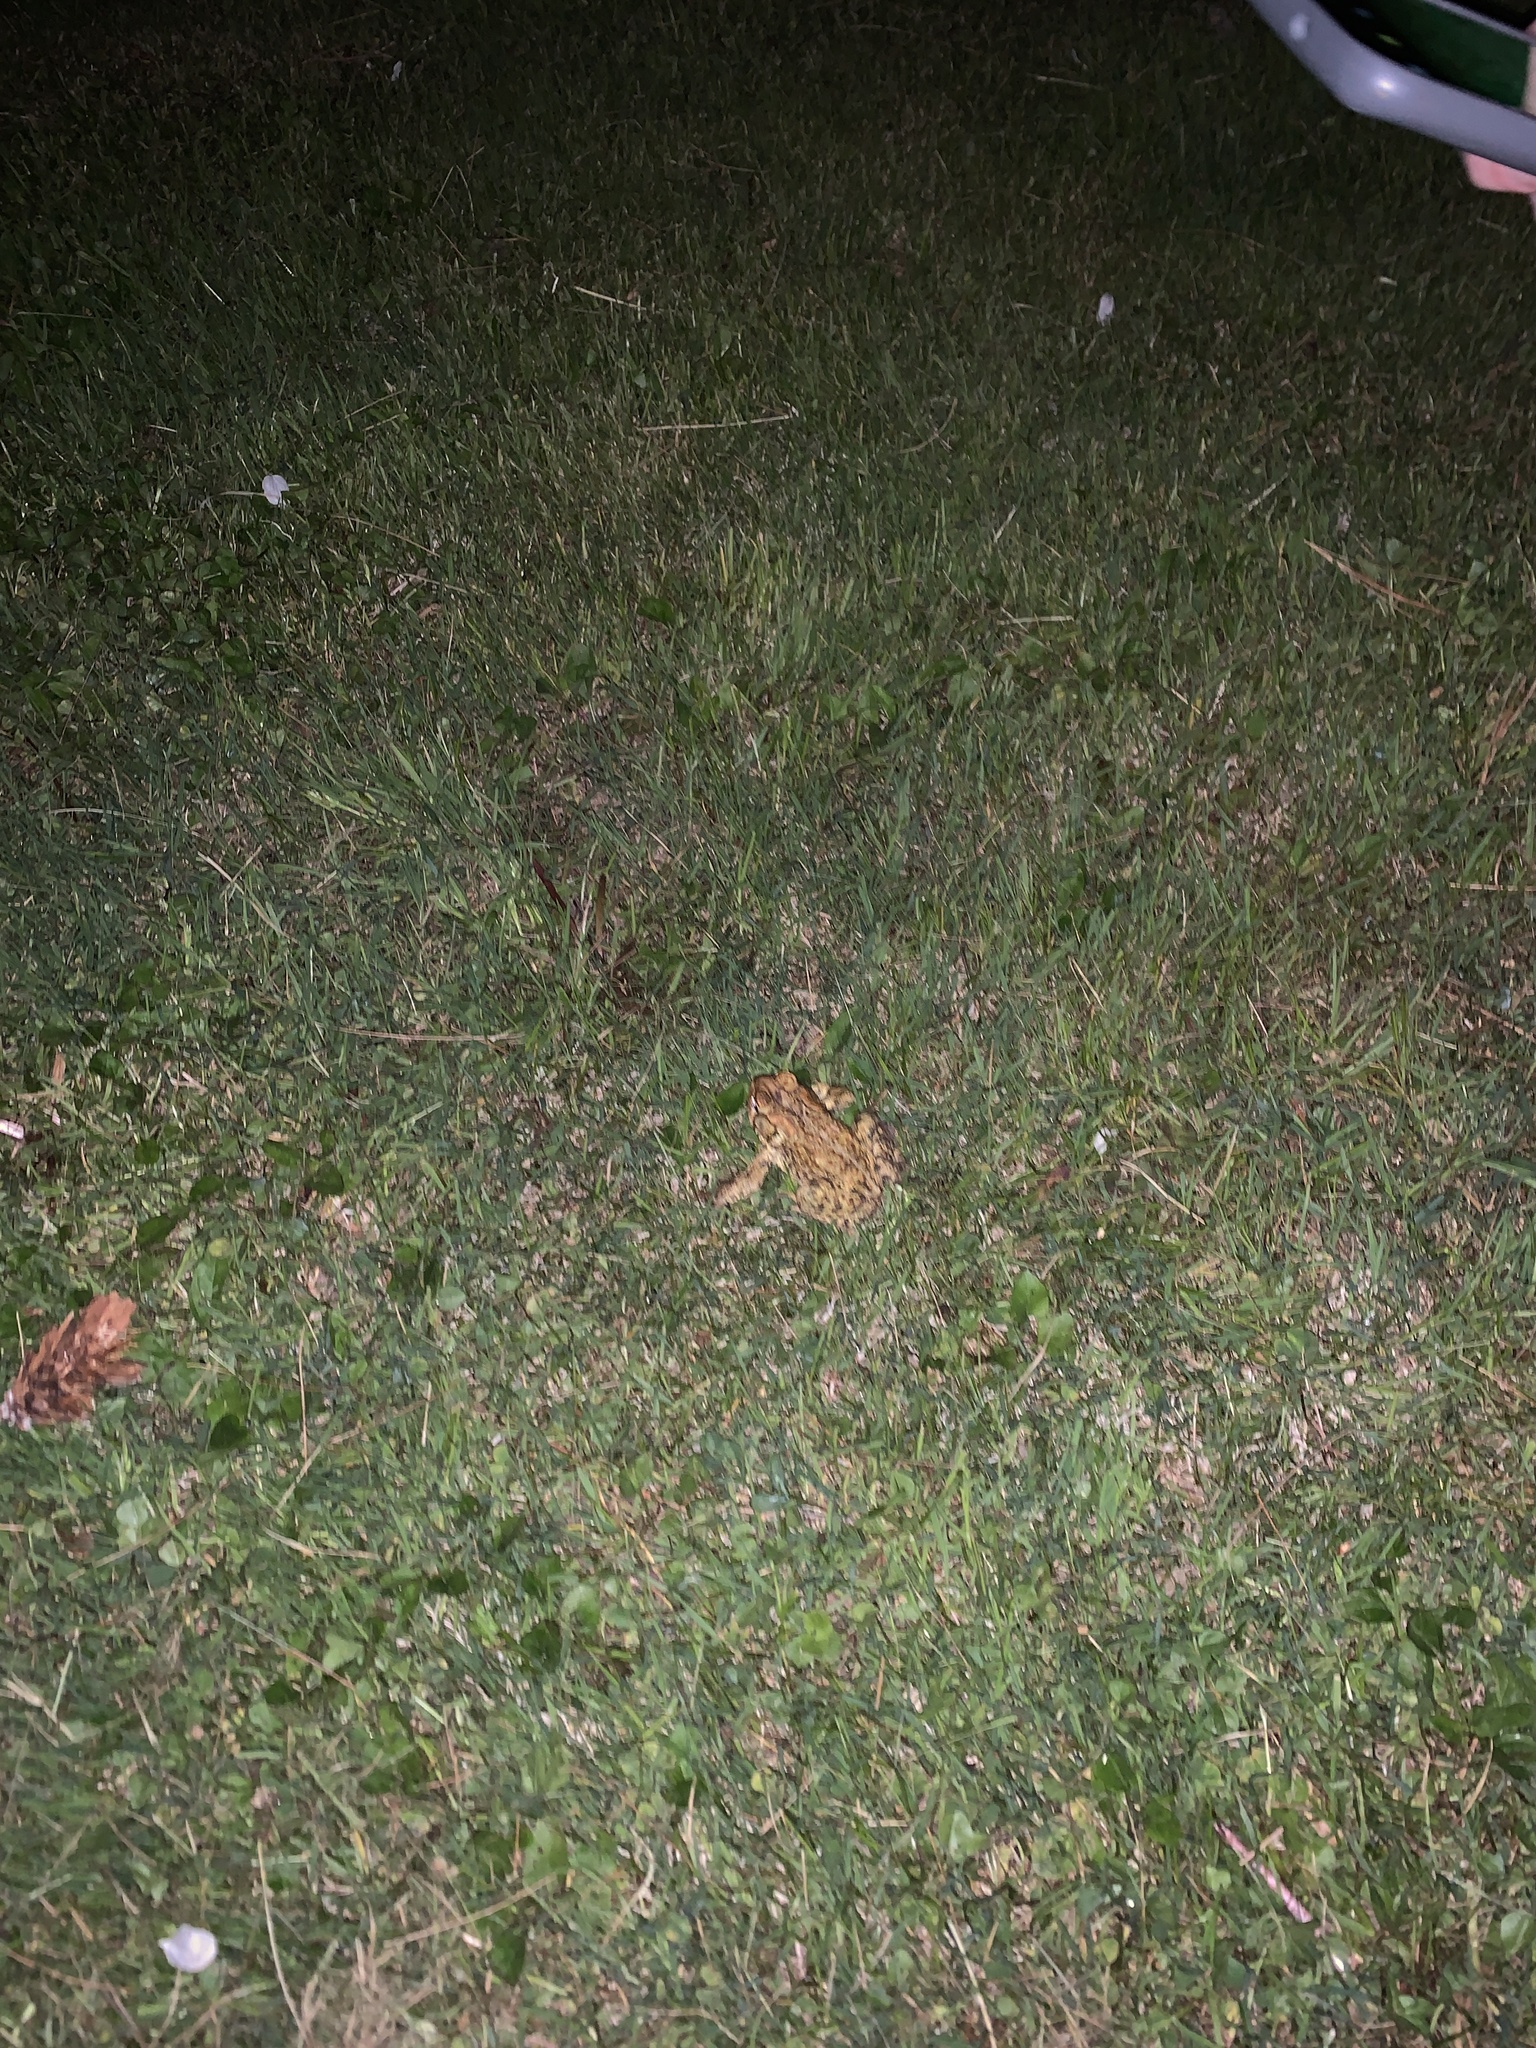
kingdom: Animalia
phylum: Chordata
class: Amphibia
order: Anura
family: Bufonidae
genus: Anaxyrus
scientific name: Anaxyrus americanus
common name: American toad
